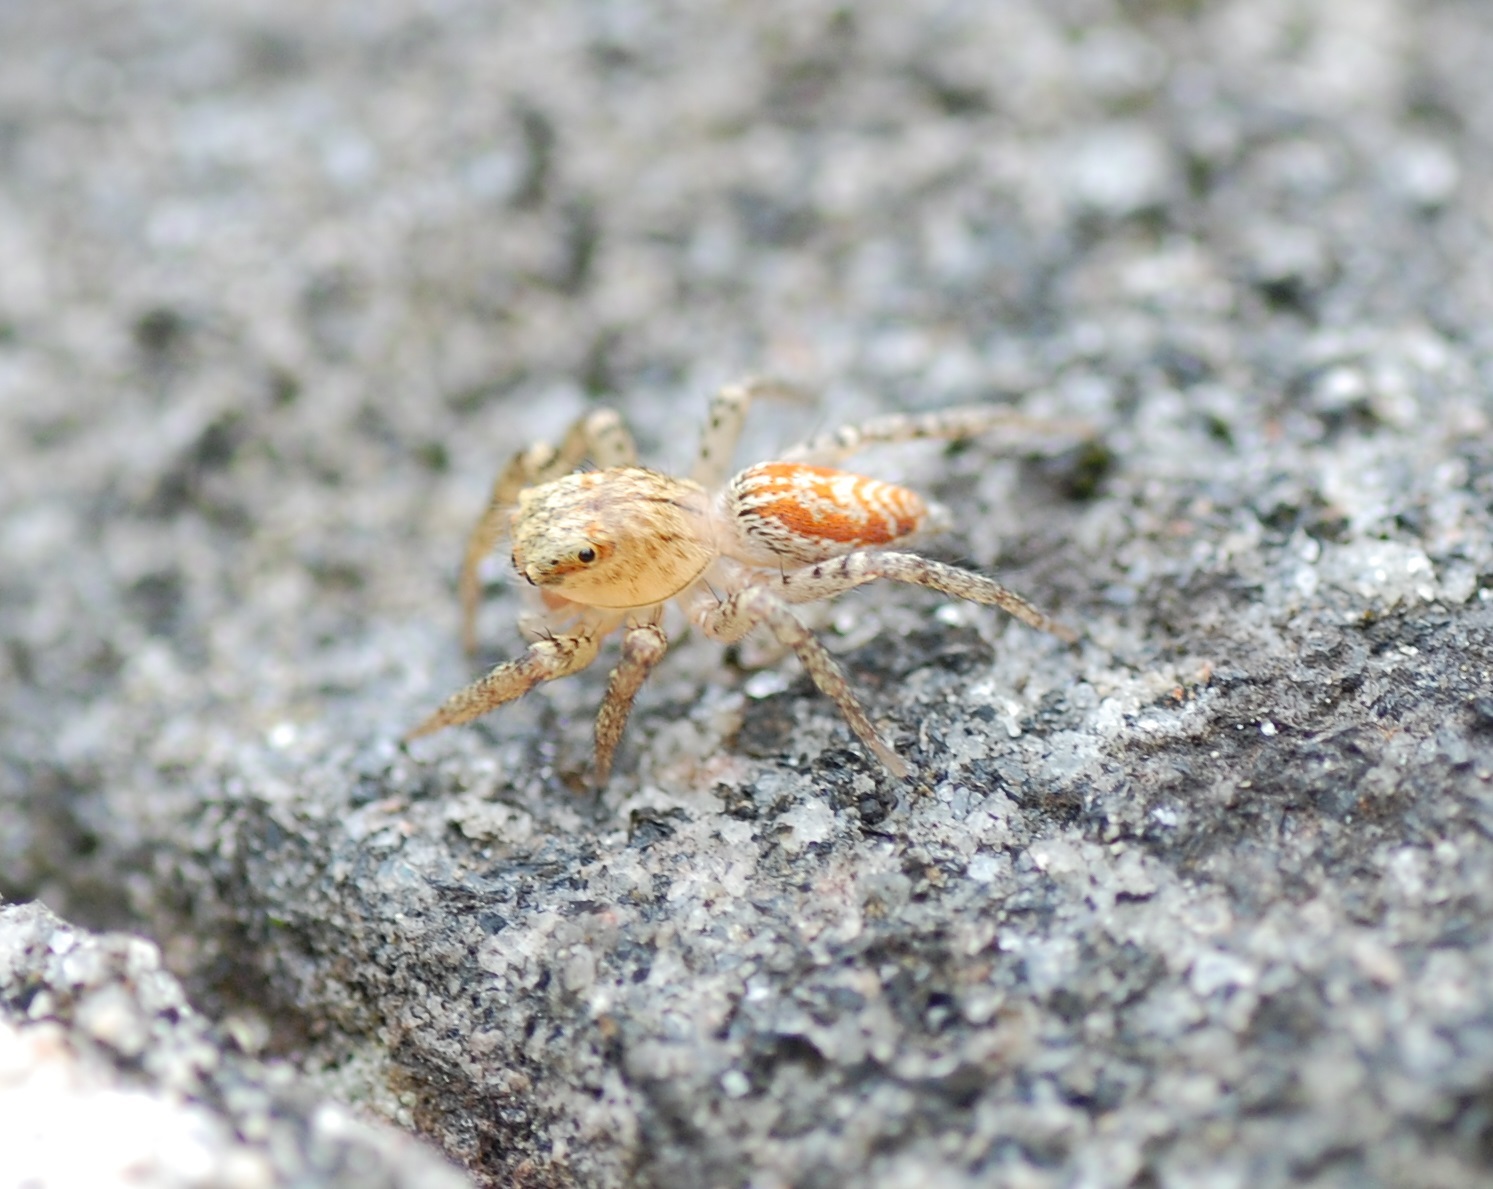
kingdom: Animalia
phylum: Arthropoda
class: Arachnida
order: Araneae
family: Salticidae
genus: Maevia
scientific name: Maevia inclemens
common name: Dimorphic jumper
